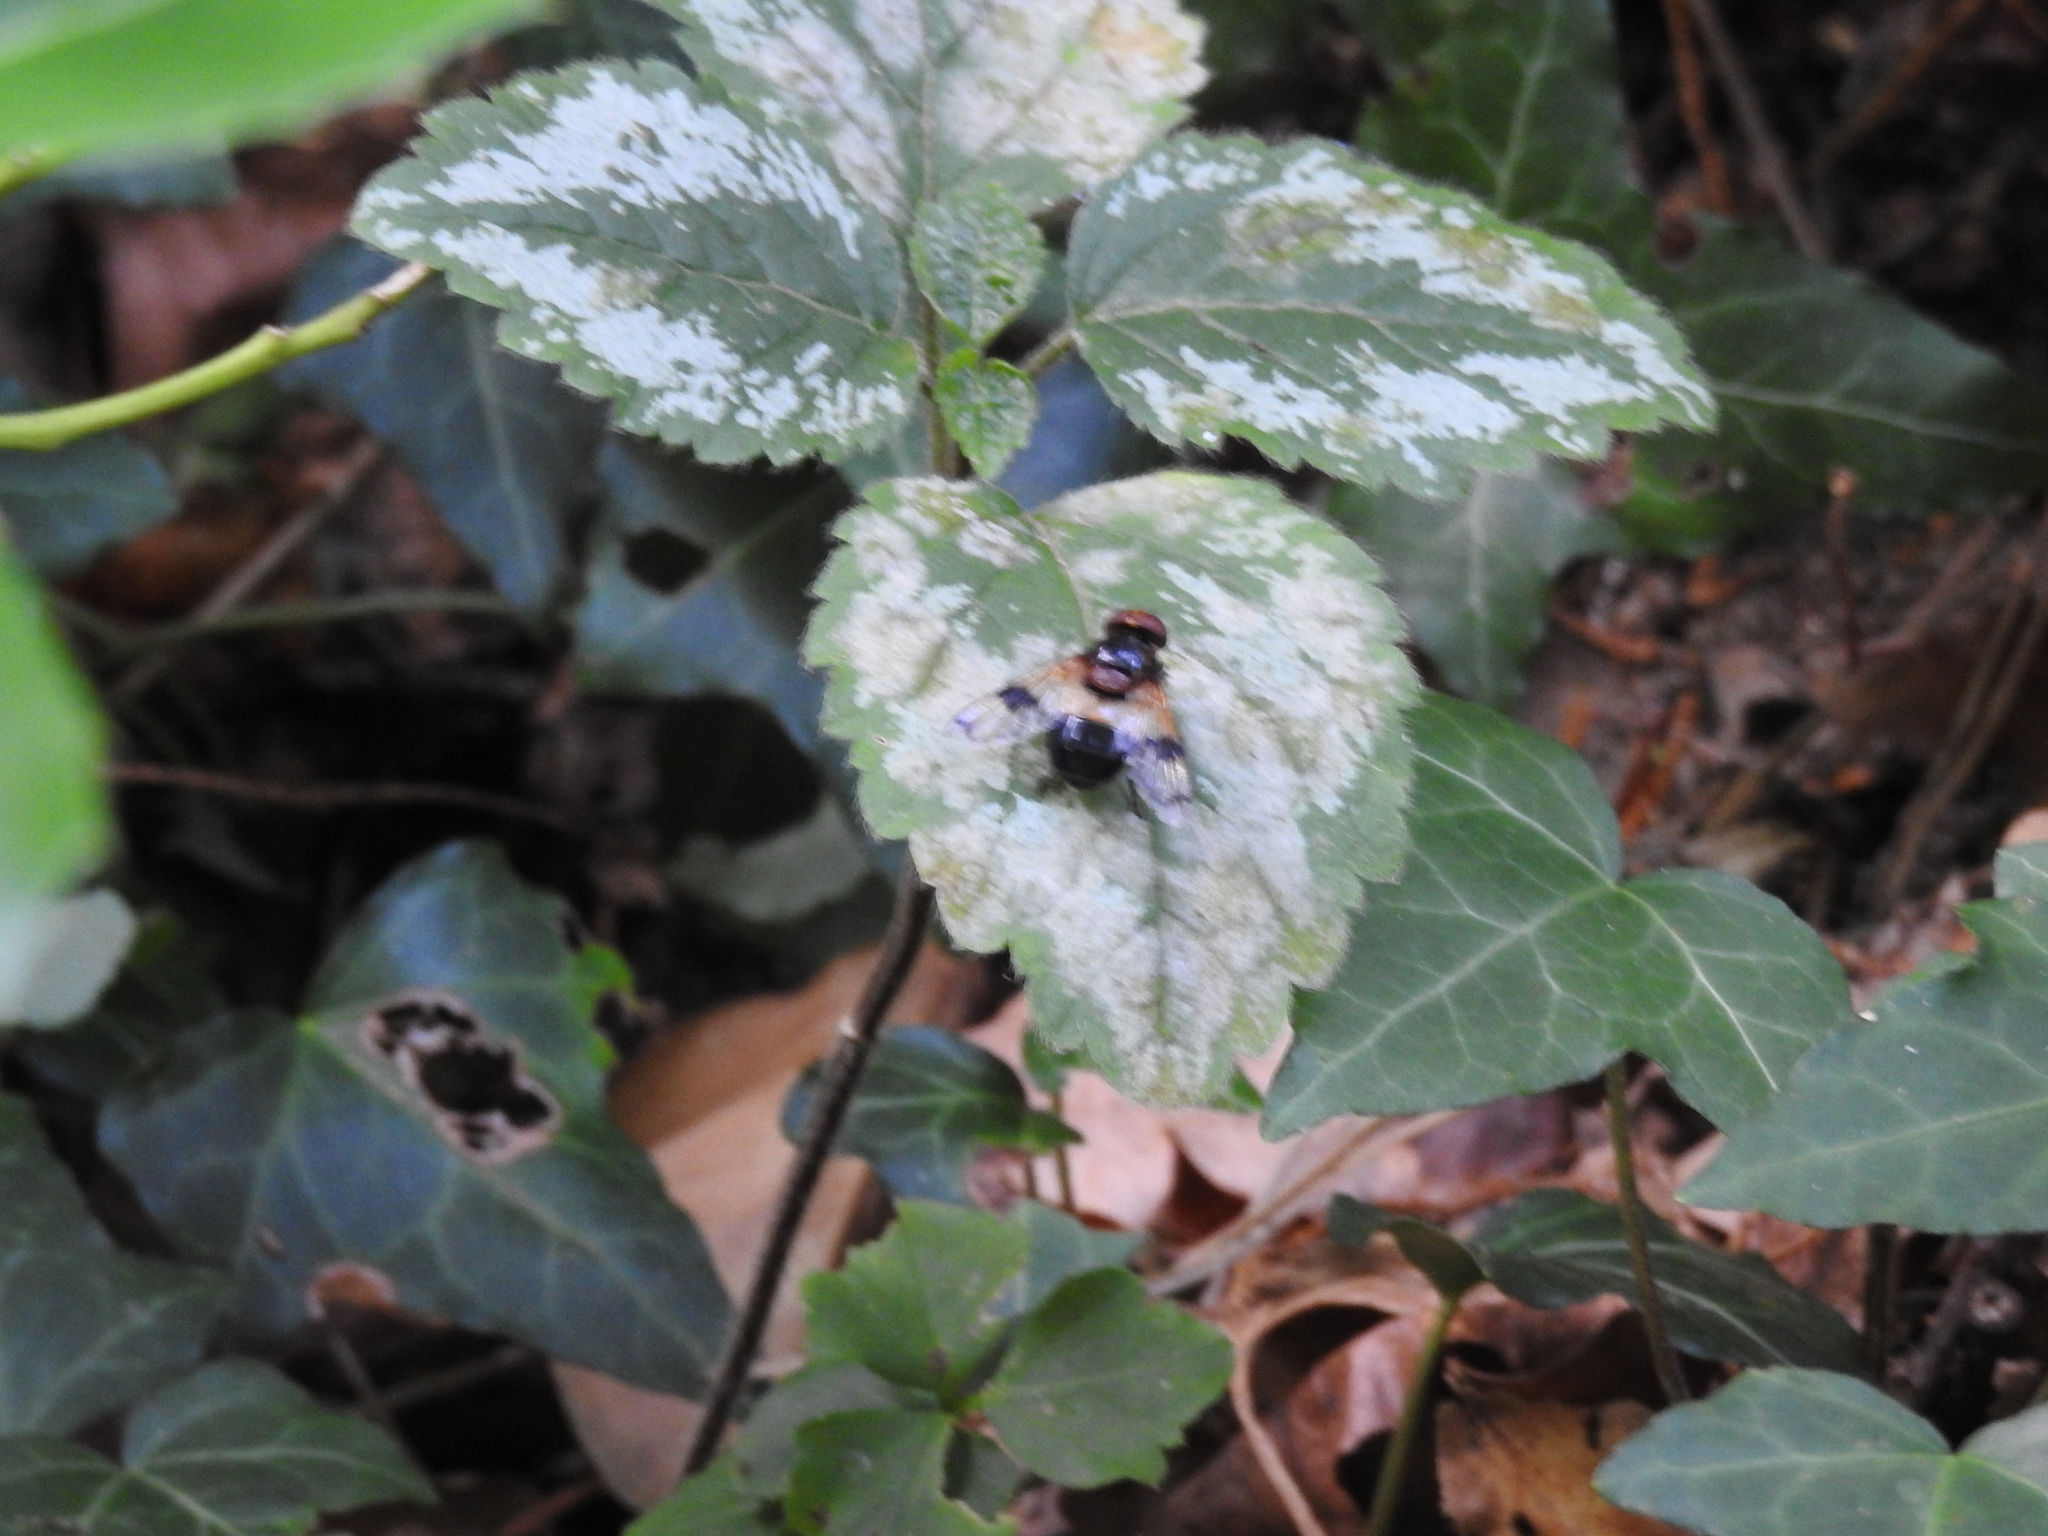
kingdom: Animalia
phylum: Arthropoda
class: Insecta
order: Diptera
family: Syrphidae
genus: Volucella
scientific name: Volucella pellucens
